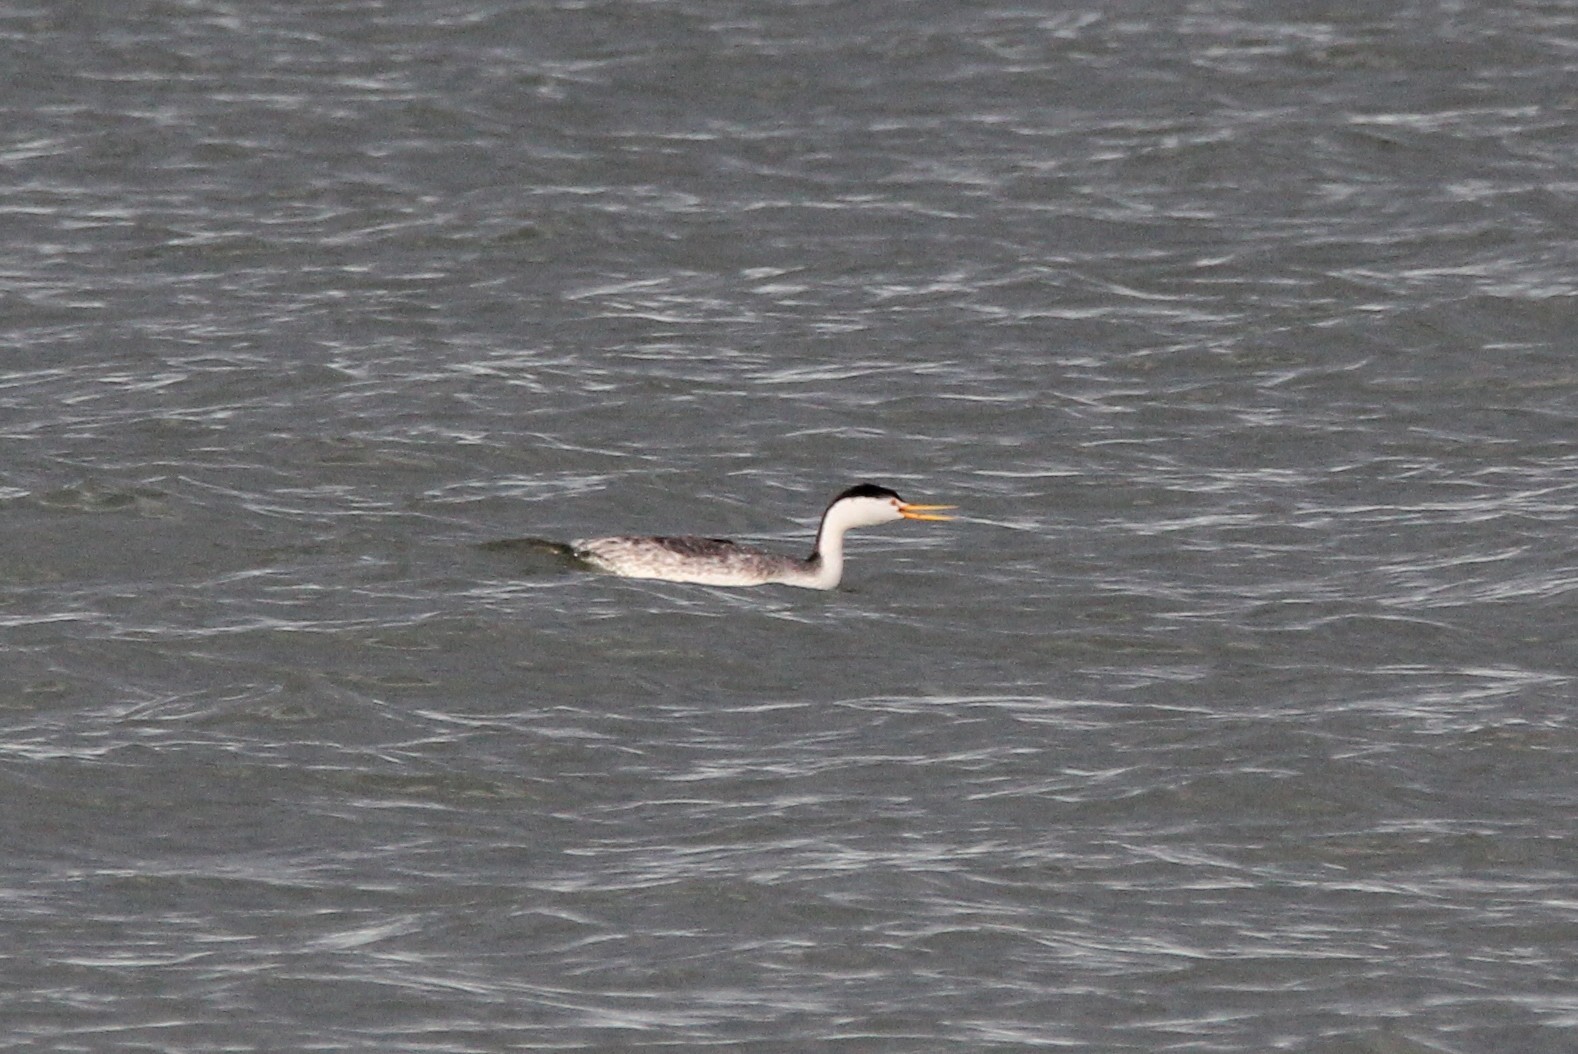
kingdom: Animalia
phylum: Chordata
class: Aves
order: Podicipediformes
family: Podicipedidae
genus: Aechmophorus
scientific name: Aechmophorus clarkii
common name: Clark's grebe
